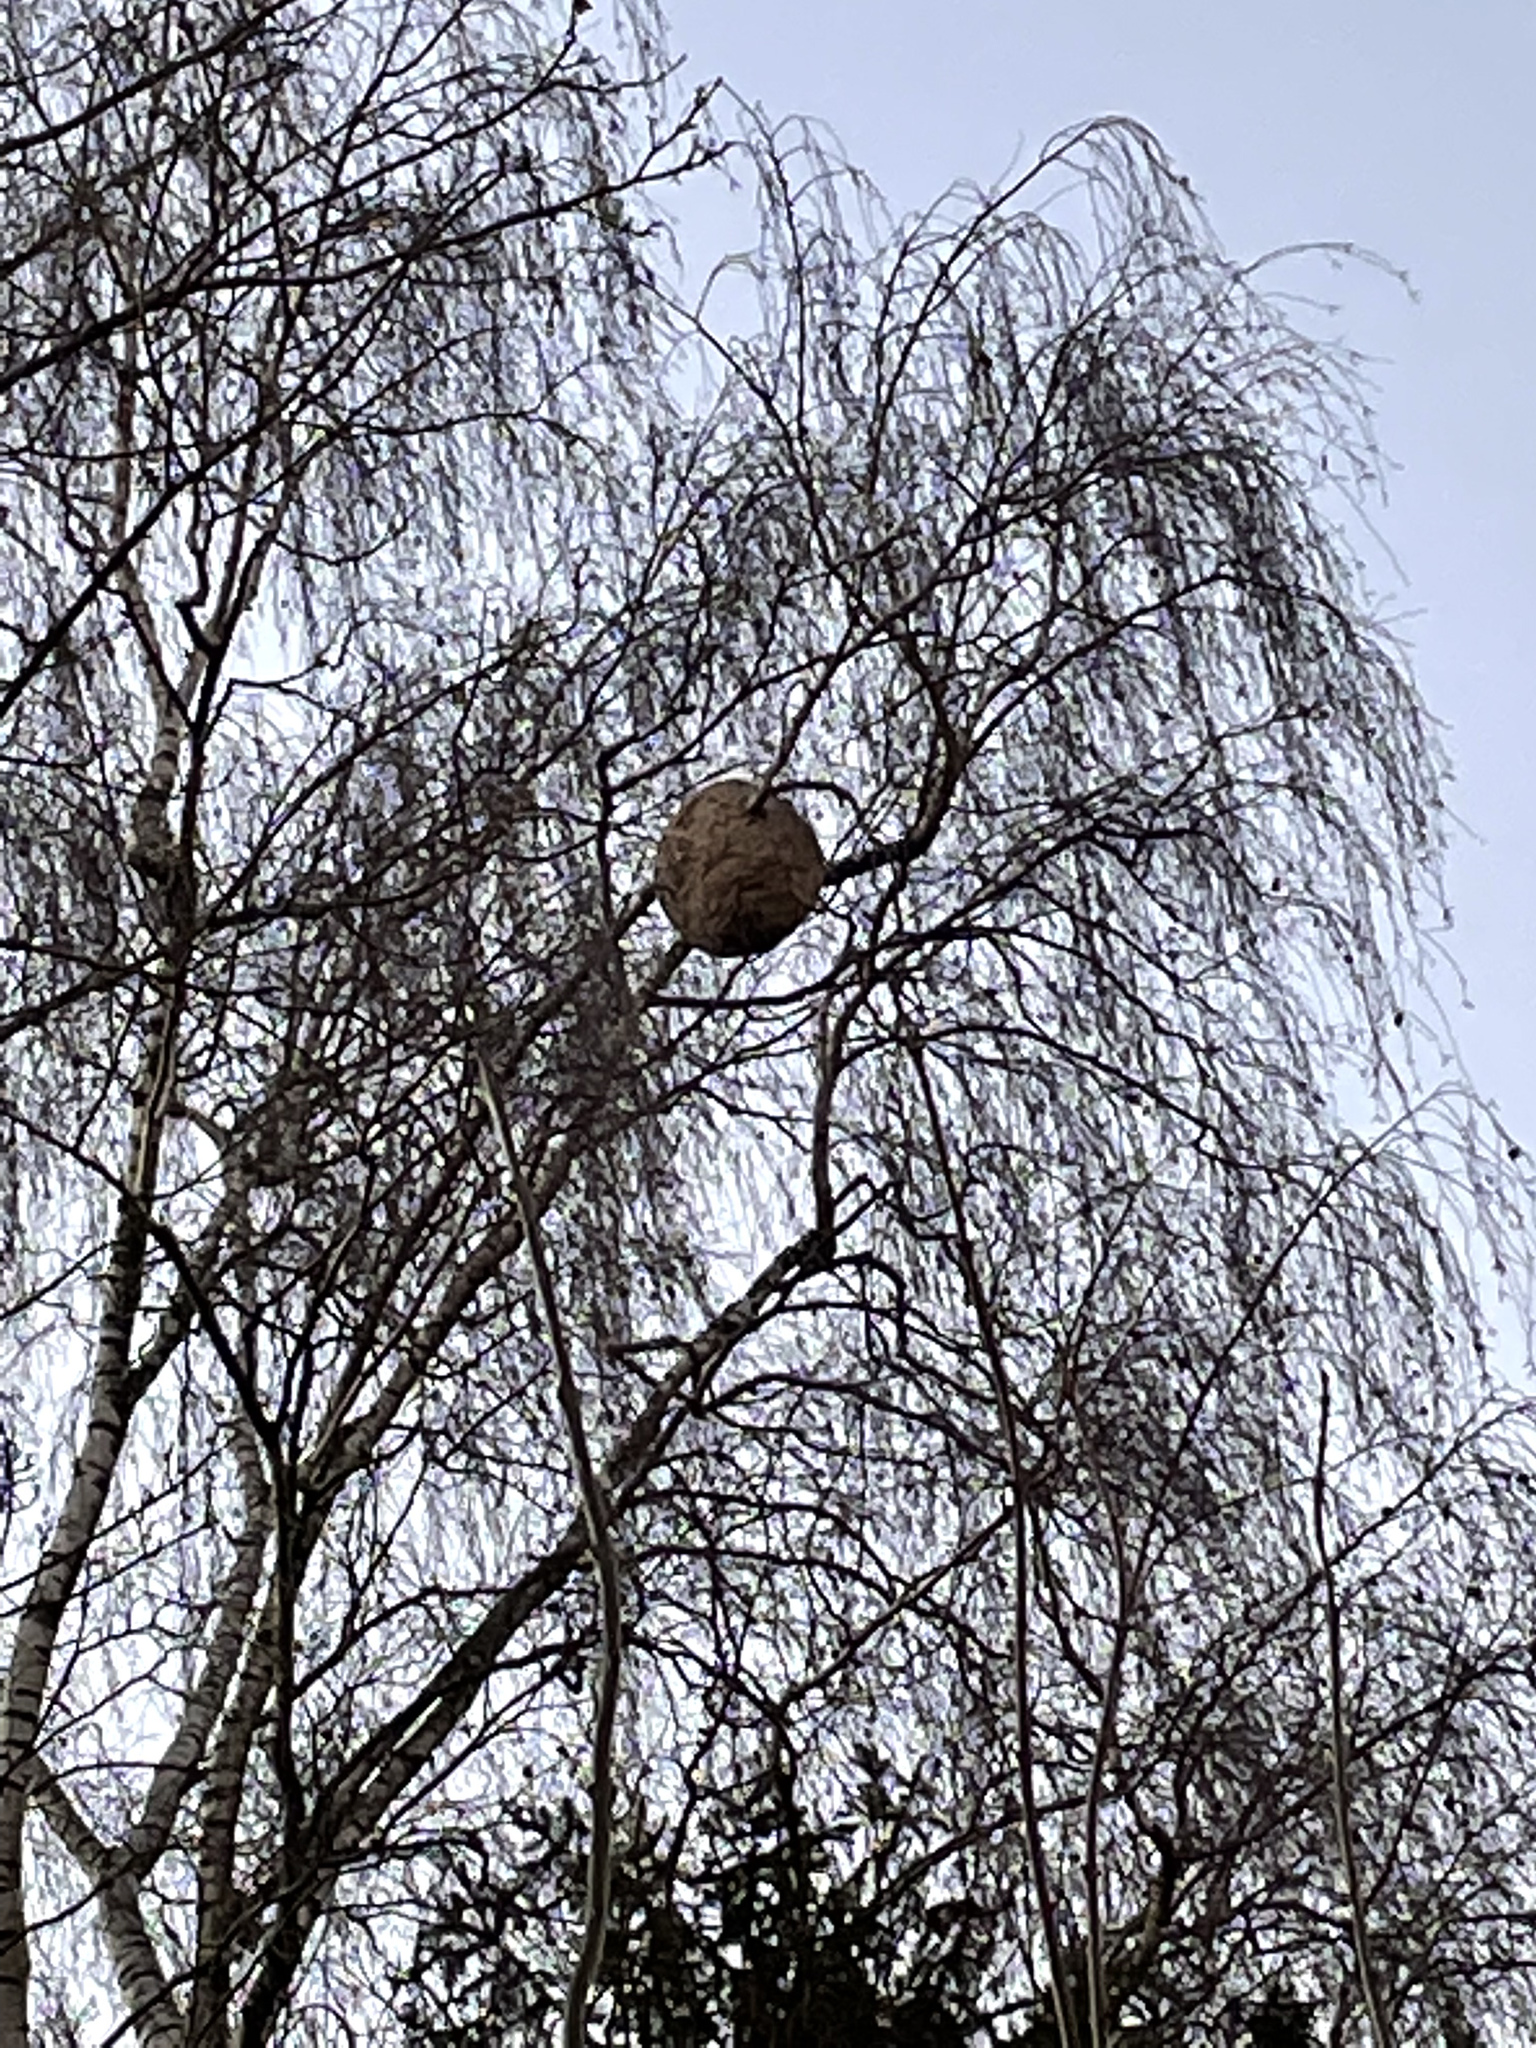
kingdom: Animalia
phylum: Arthropoda
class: Insecta
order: Hymenoptera
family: Vespidae
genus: Vespa
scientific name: Vespa velutina
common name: Asian hornet
